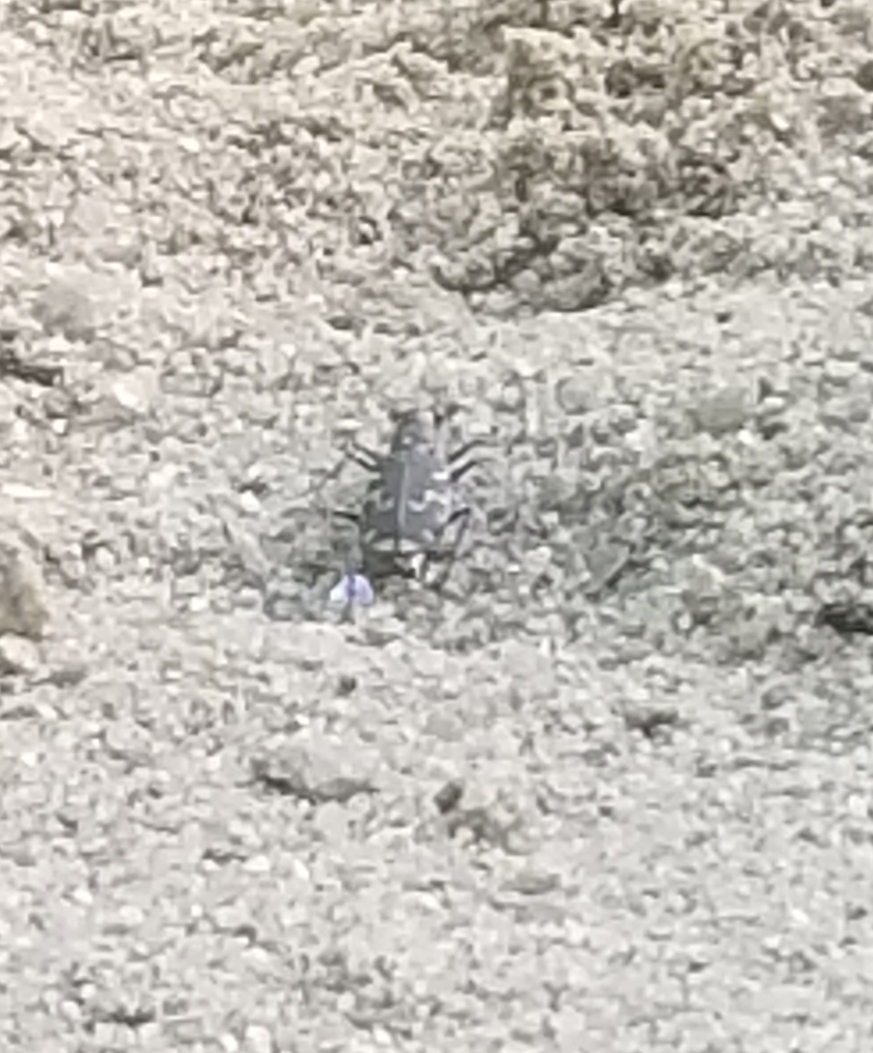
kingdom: Animalia
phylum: Arthropoda
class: Insecta
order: Coleoptera
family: Carabidae
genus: Cicindela
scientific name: Cicindela repanda
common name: Bronzed tiger beetle
